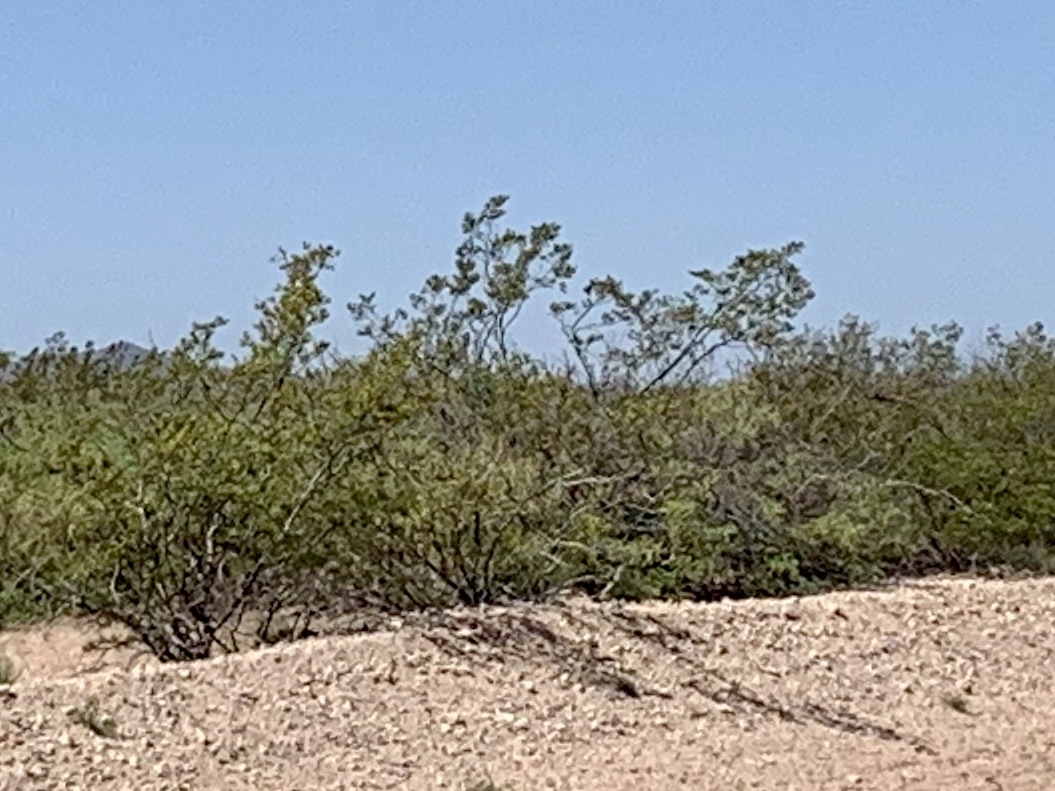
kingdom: Plantae
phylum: Tracheophyta
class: Magnoliopsida
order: Zygophyllales
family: Zygophyllaceae
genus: Larrea
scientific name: Larrea tridentata
